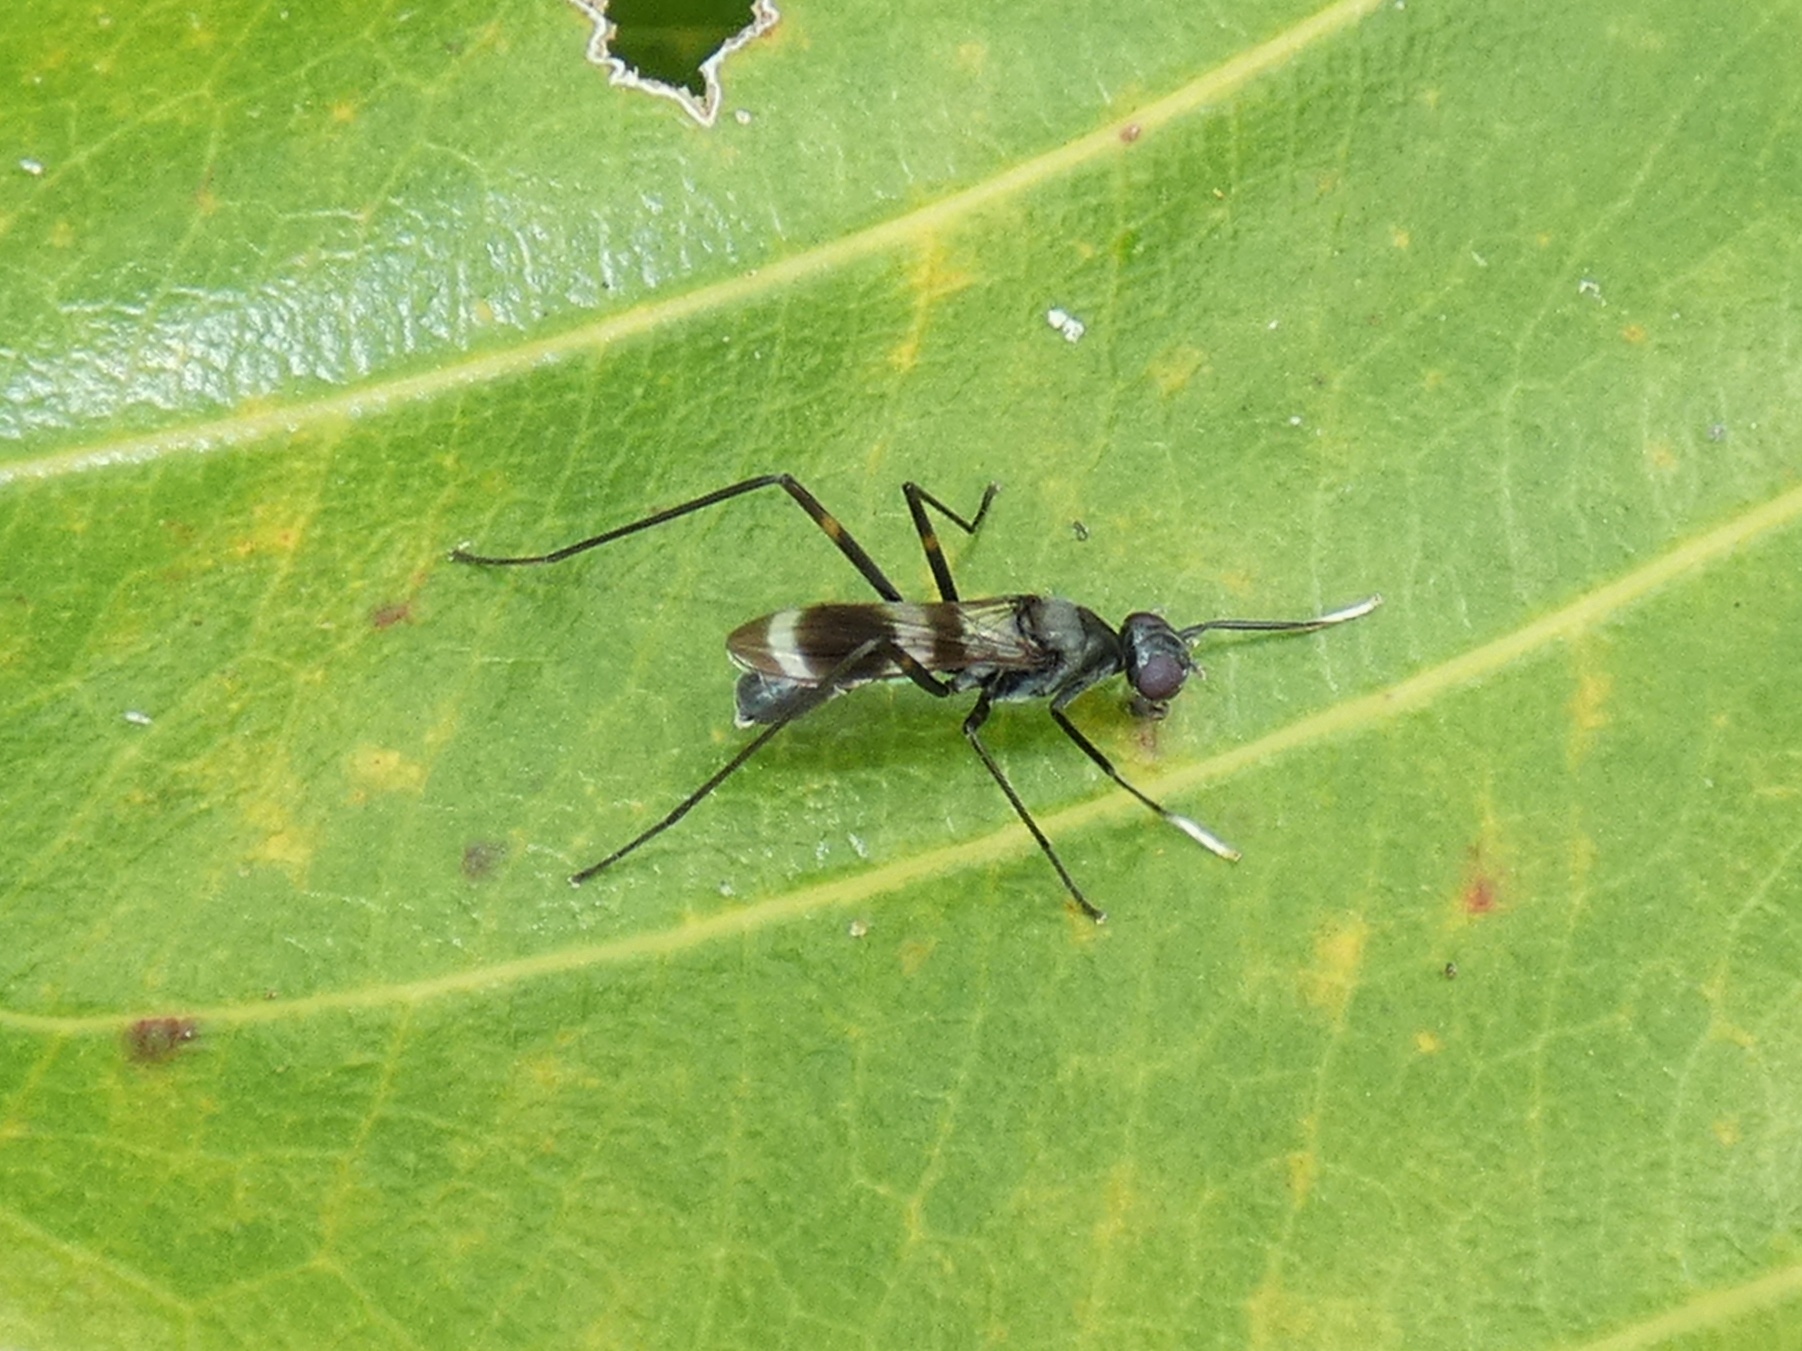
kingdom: Animalia
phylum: Arthropoda
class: Insecta
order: Diptera
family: Micropezidae
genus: Mimegralla
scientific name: Mimegralla australica
